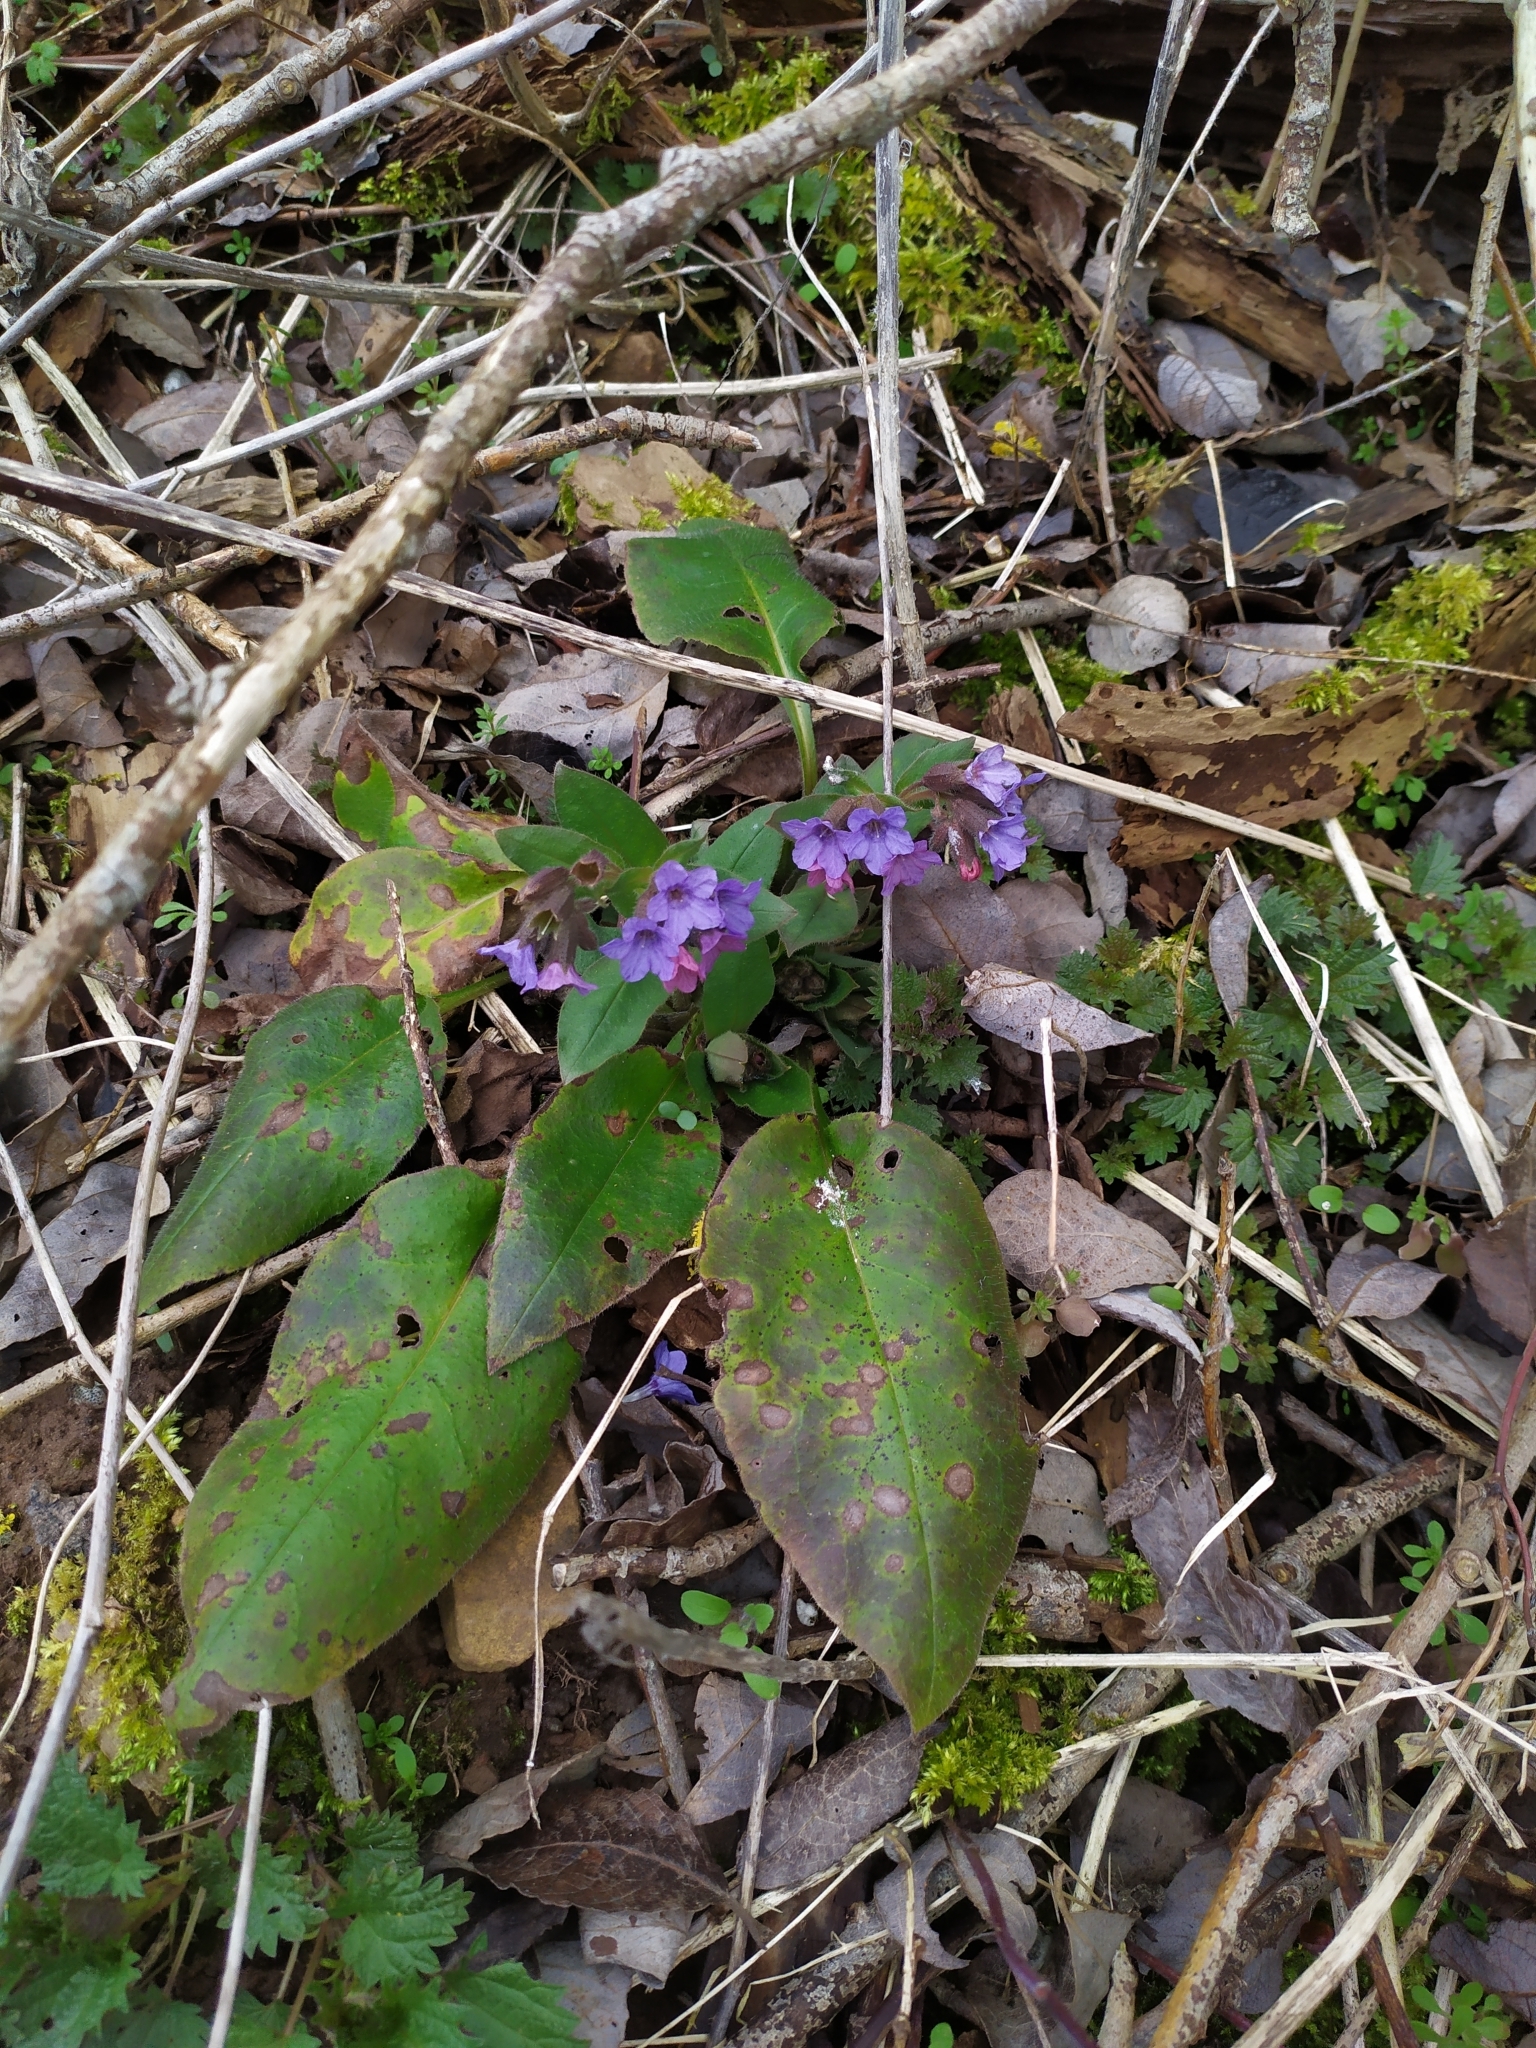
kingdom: Plantae
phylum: Tracheophyta
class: Magnoliopsida
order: Boraginales
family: Boraginaceae
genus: Pulmonaria
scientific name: Pulmonaria obscura
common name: Suffolk lungwort
